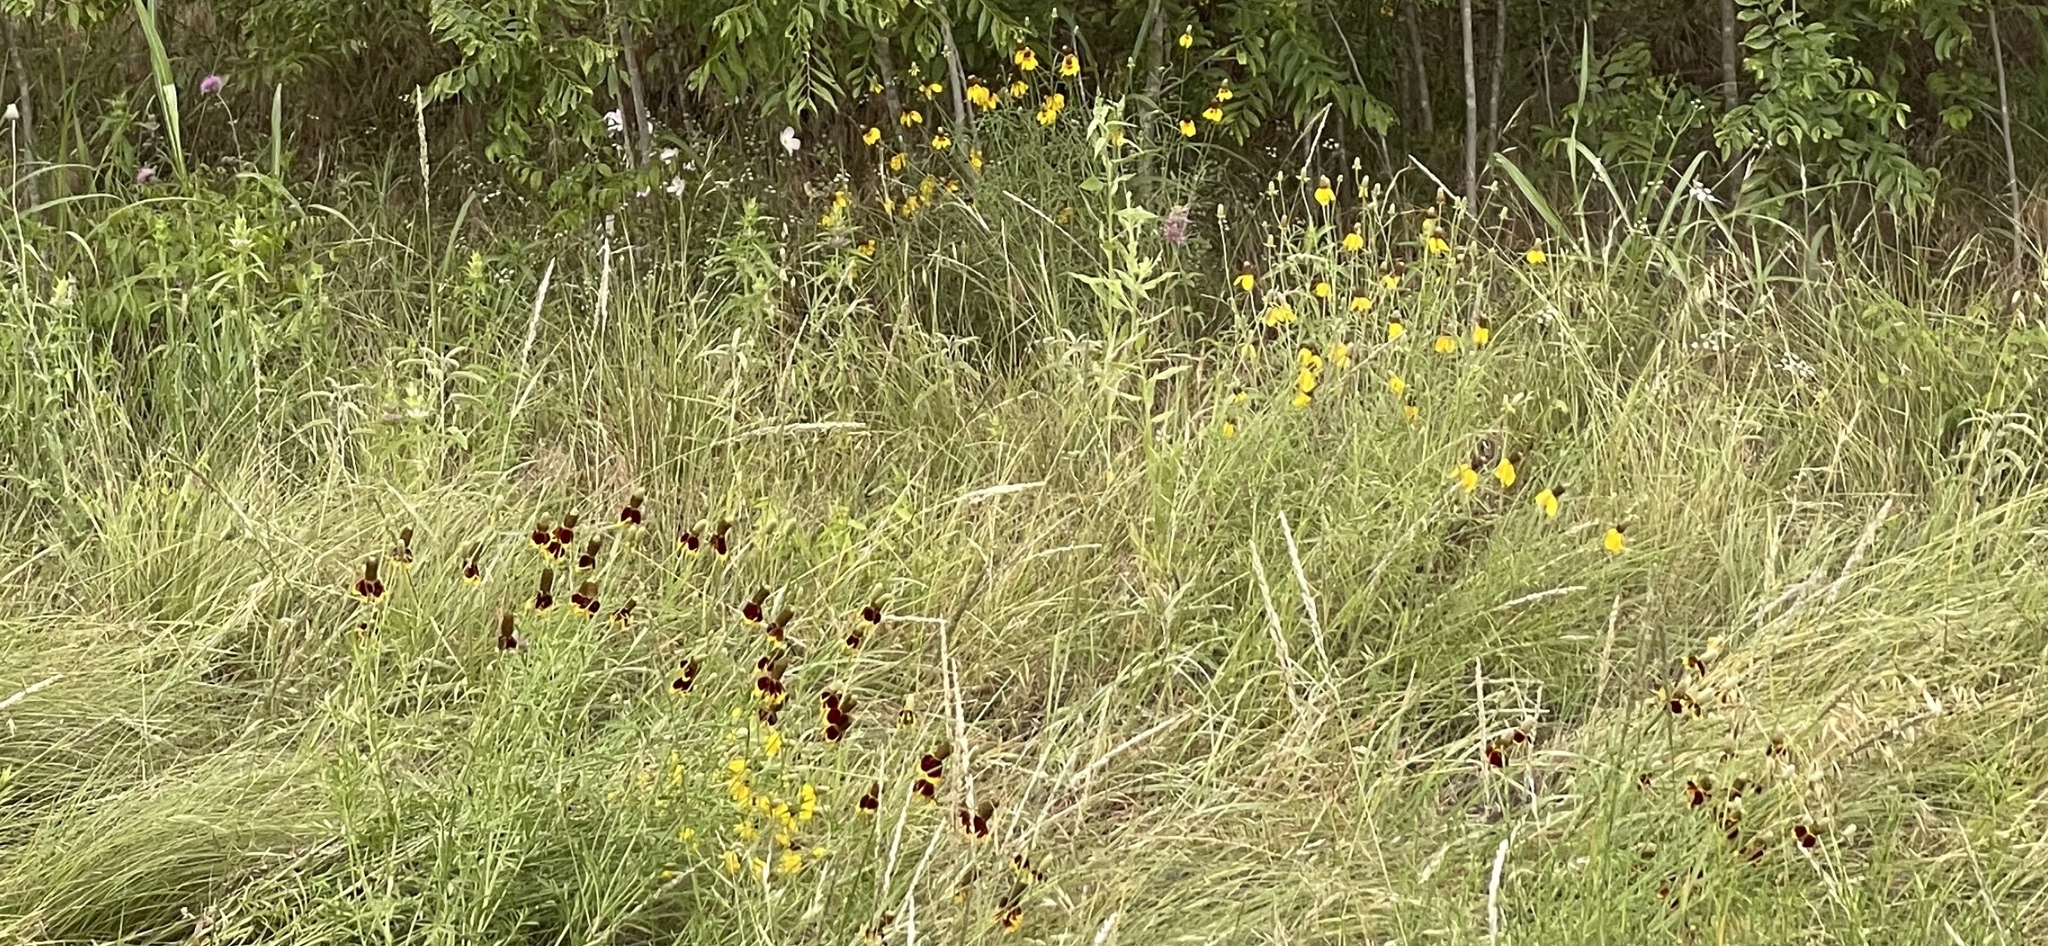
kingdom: Plantae
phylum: Tracheophyta
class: Magnoliopsida
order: Asterales
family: Asteraceae
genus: Ratibida
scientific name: Ratibida columnifera
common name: Prairie coneflower
